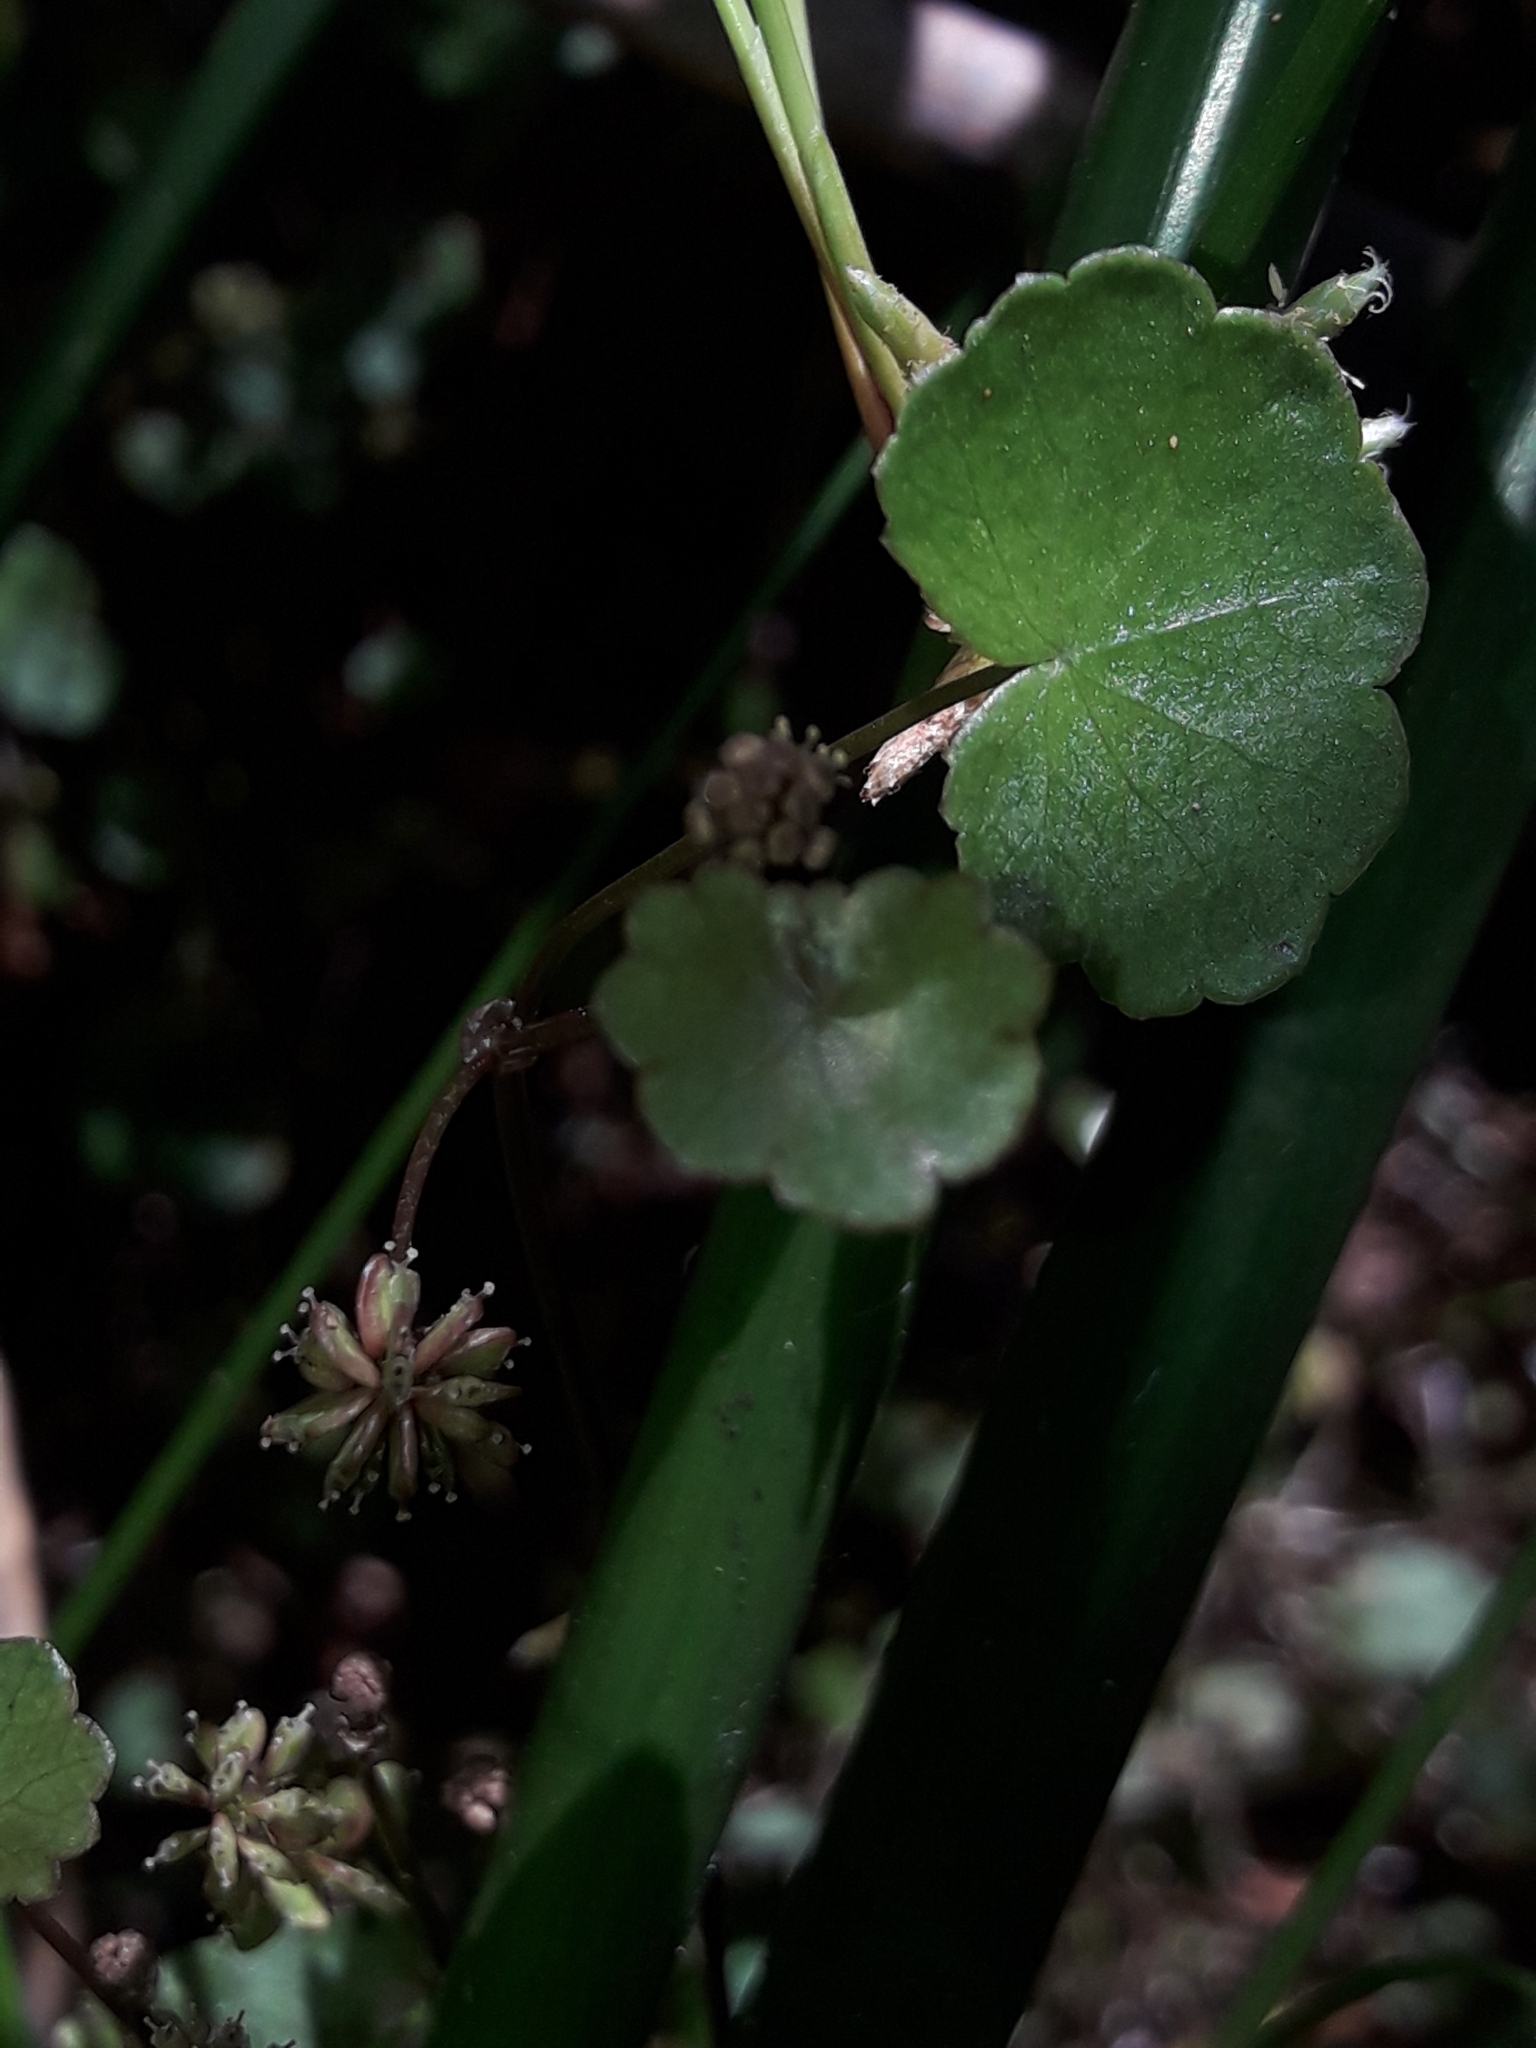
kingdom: Plantae
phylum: Tracheophyta
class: Magnoliopsida
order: Apiales
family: Araliaceae
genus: Hydrocotyle
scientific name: Hydrocotyle pterocarpa
